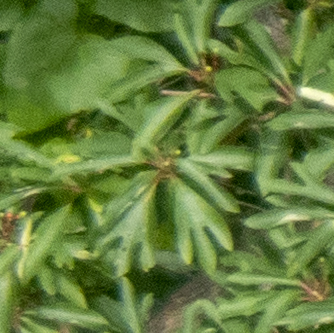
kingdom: Plantae
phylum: Tracheophyta
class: Magnoliopsida
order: Laurales
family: Lauraceae
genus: Sassafras
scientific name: Sassafras albidum
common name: Sassafras
